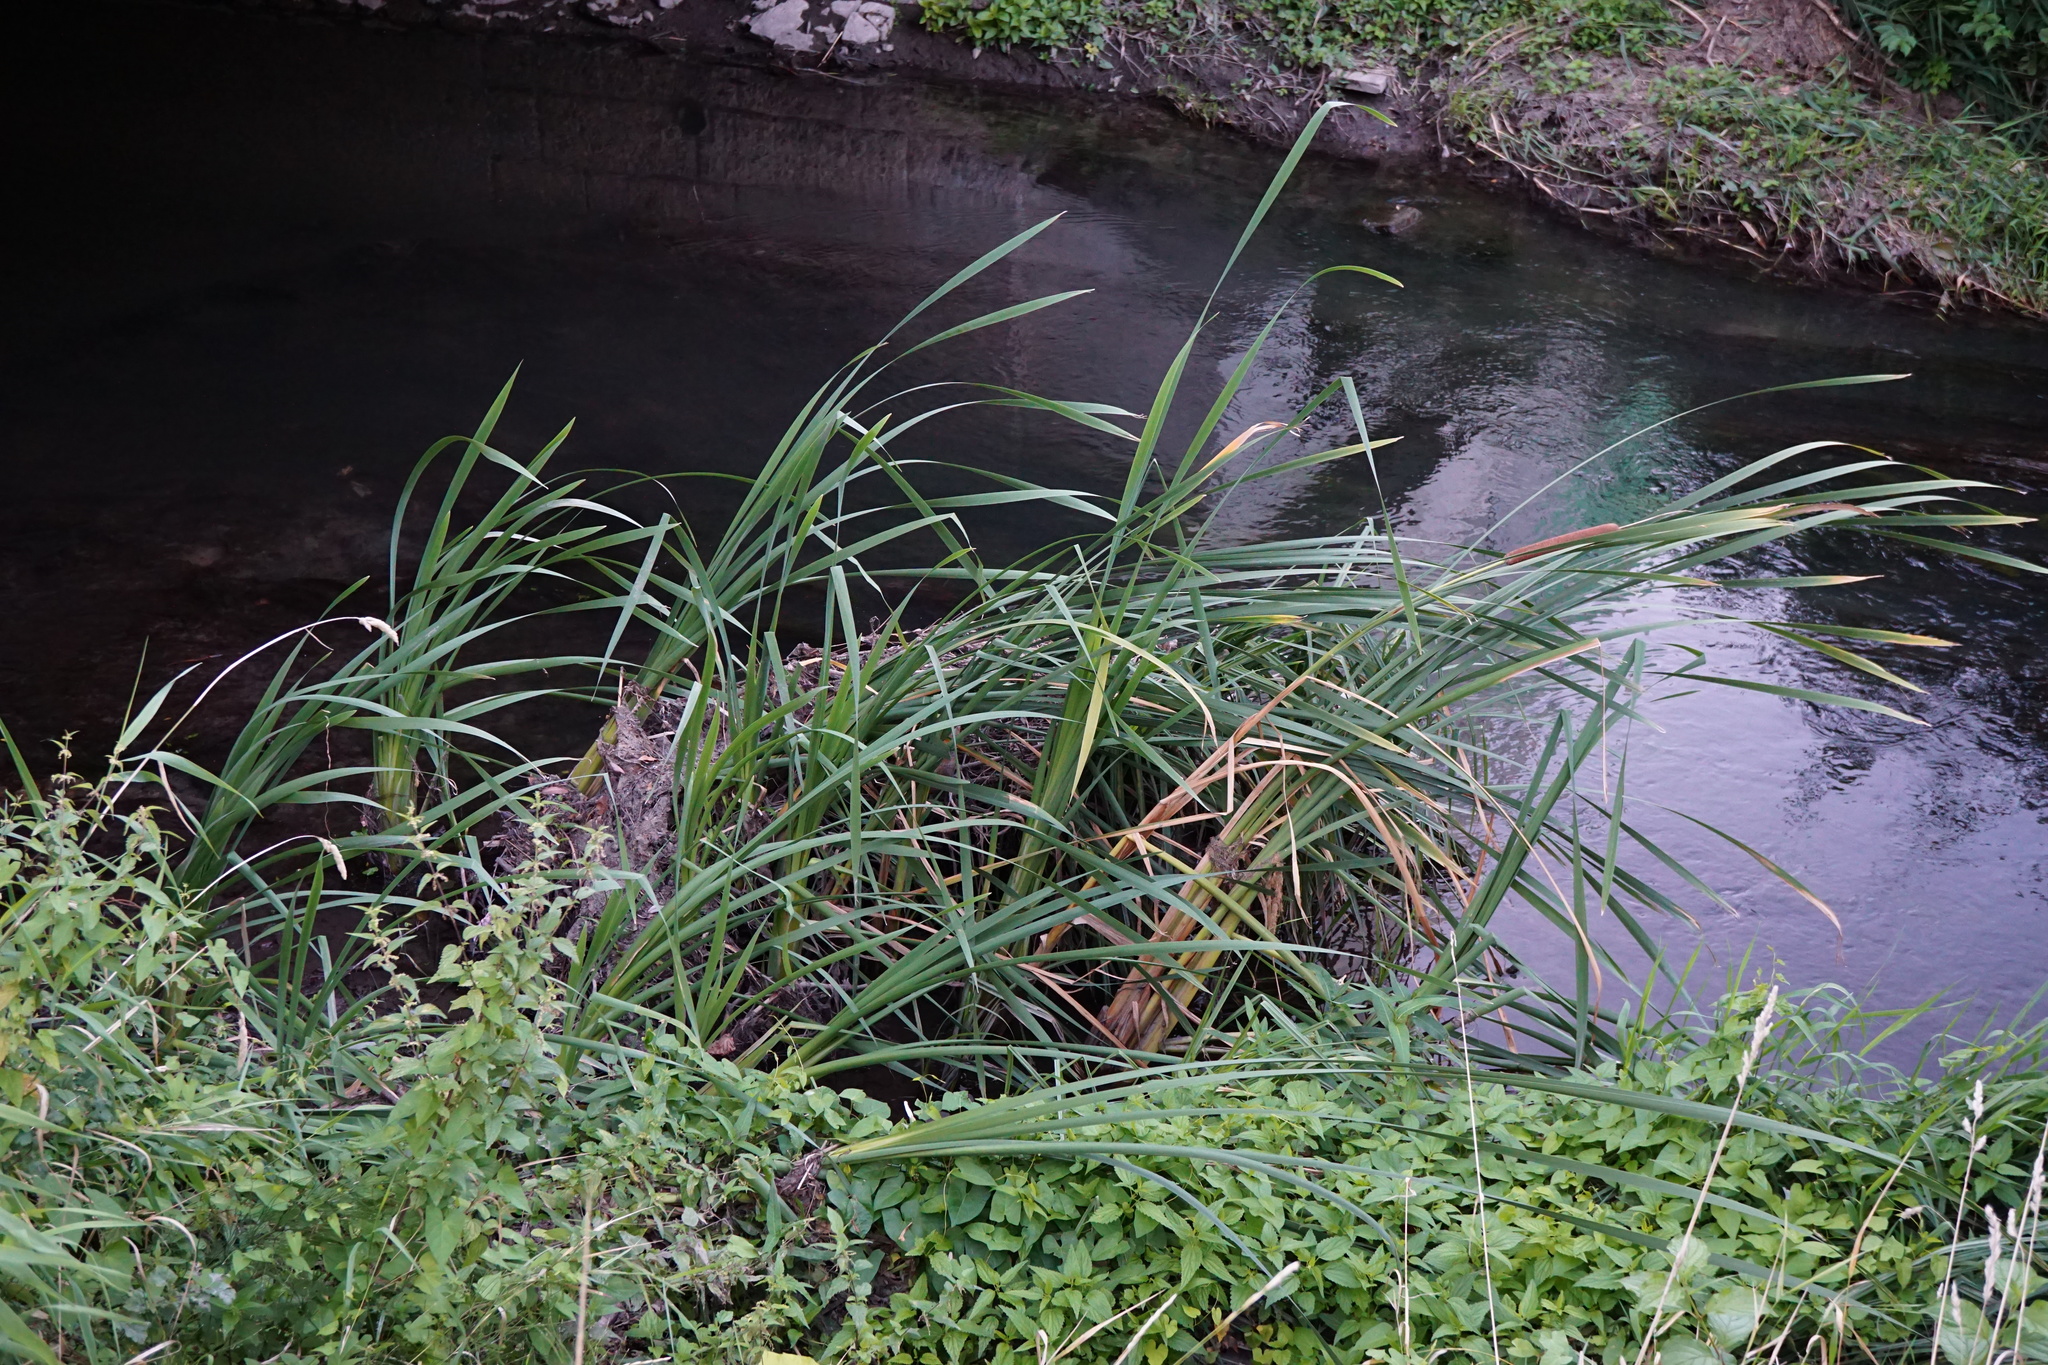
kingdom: Plantae
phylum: Tracheophyta
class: Liliopsida
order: Poales
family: Typhaceae
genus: Typha
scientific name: Typha latifolia
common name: Broadleaf cattail
